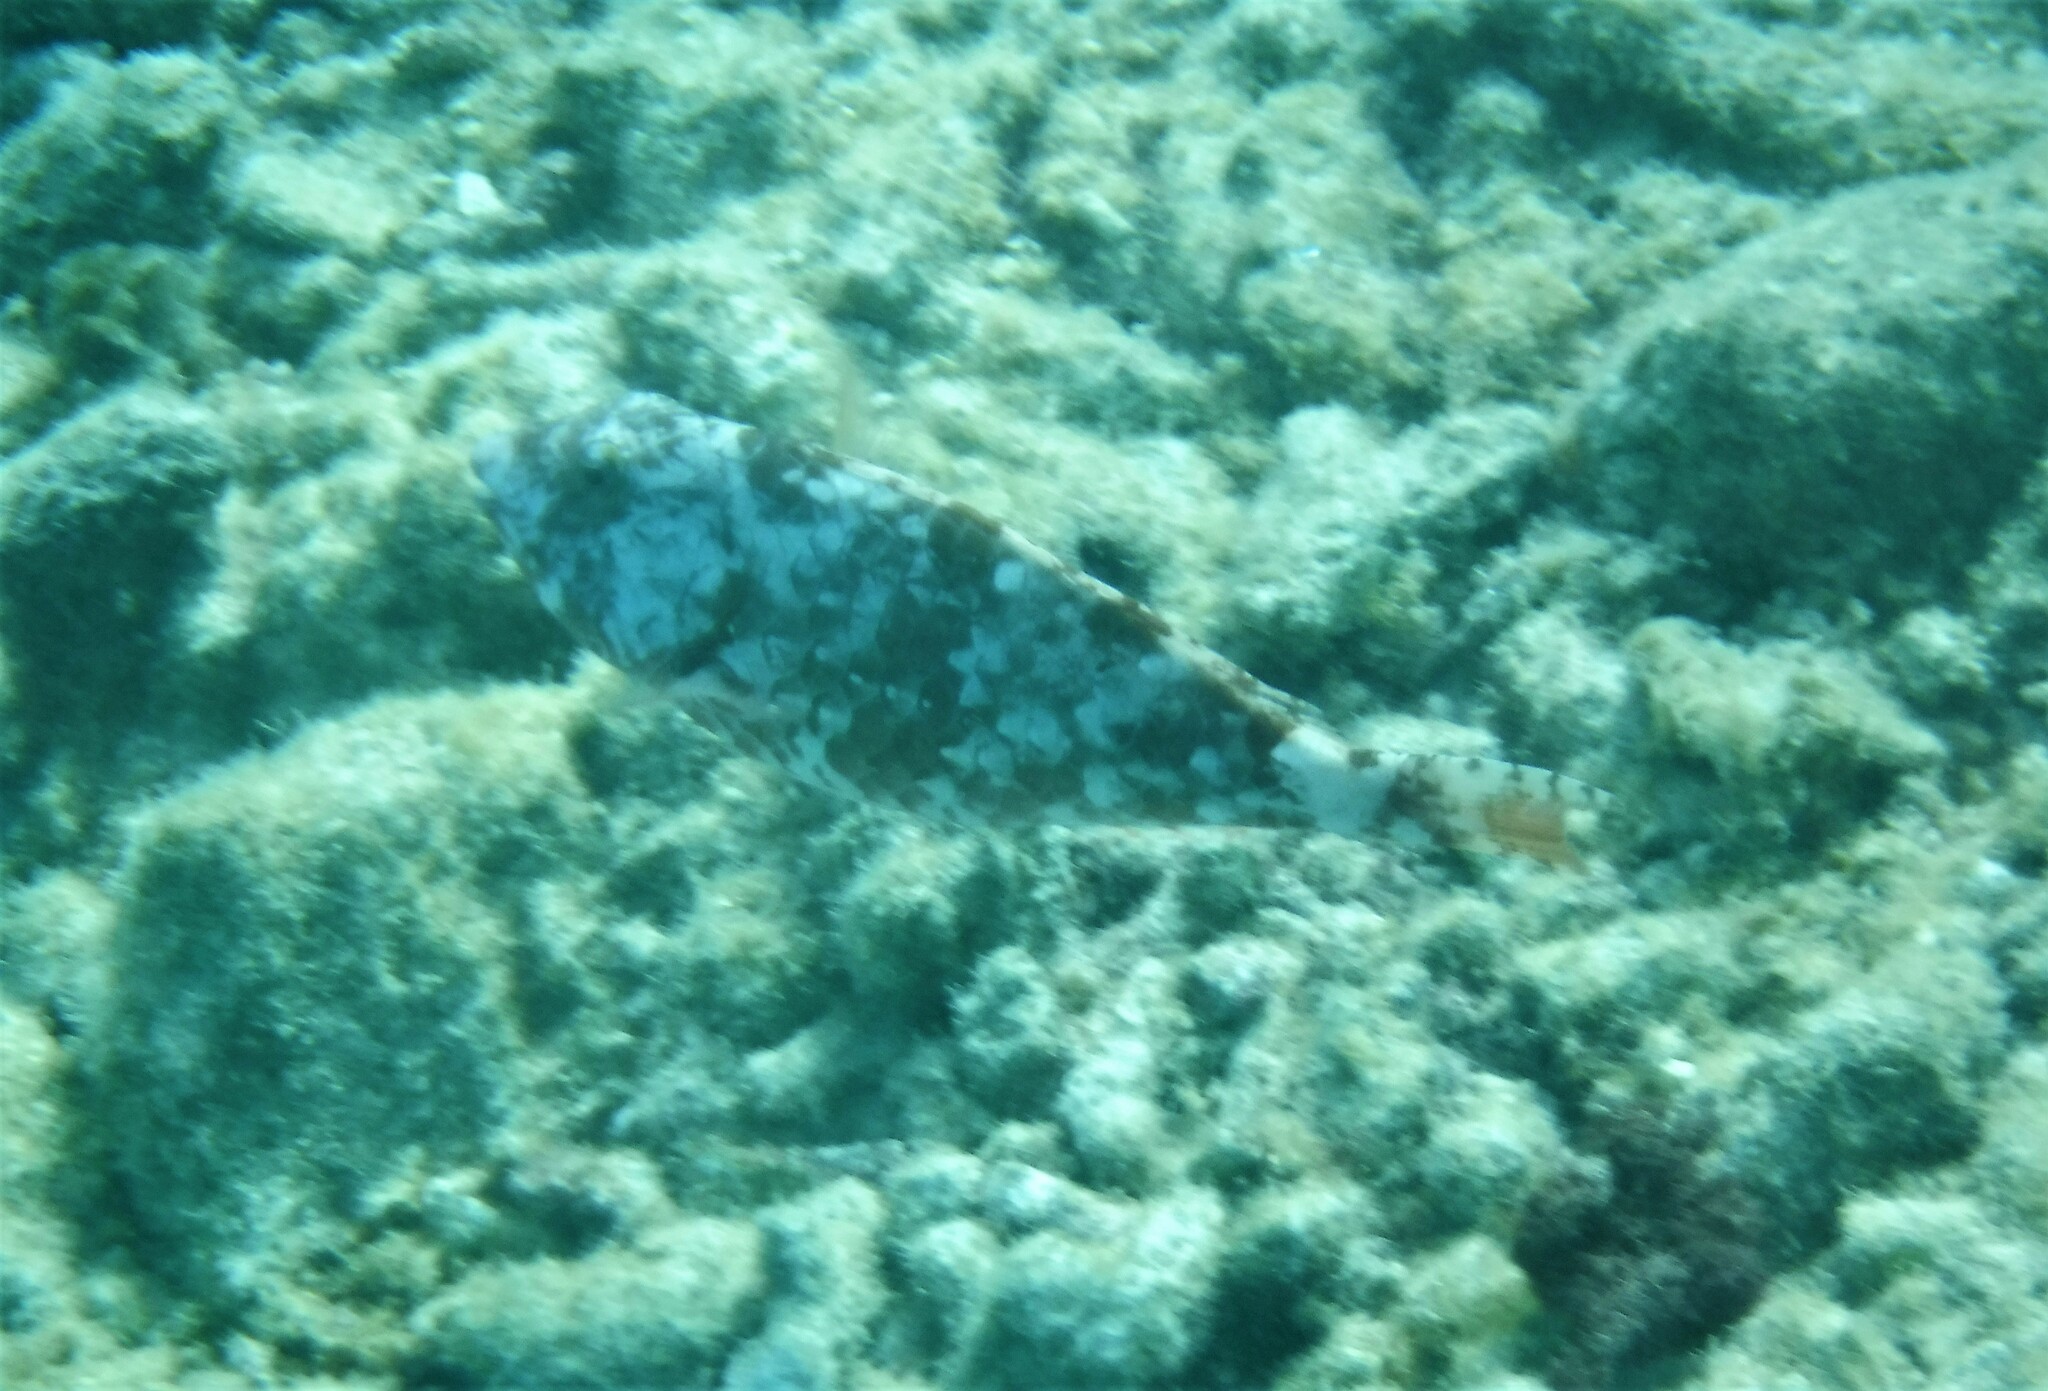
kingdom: Animalia
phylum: Chordata
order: Perciformes
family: Scaridae
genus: Sparisoma
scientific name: Sparisoma chrysopterum
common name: Redtail parrotfish
